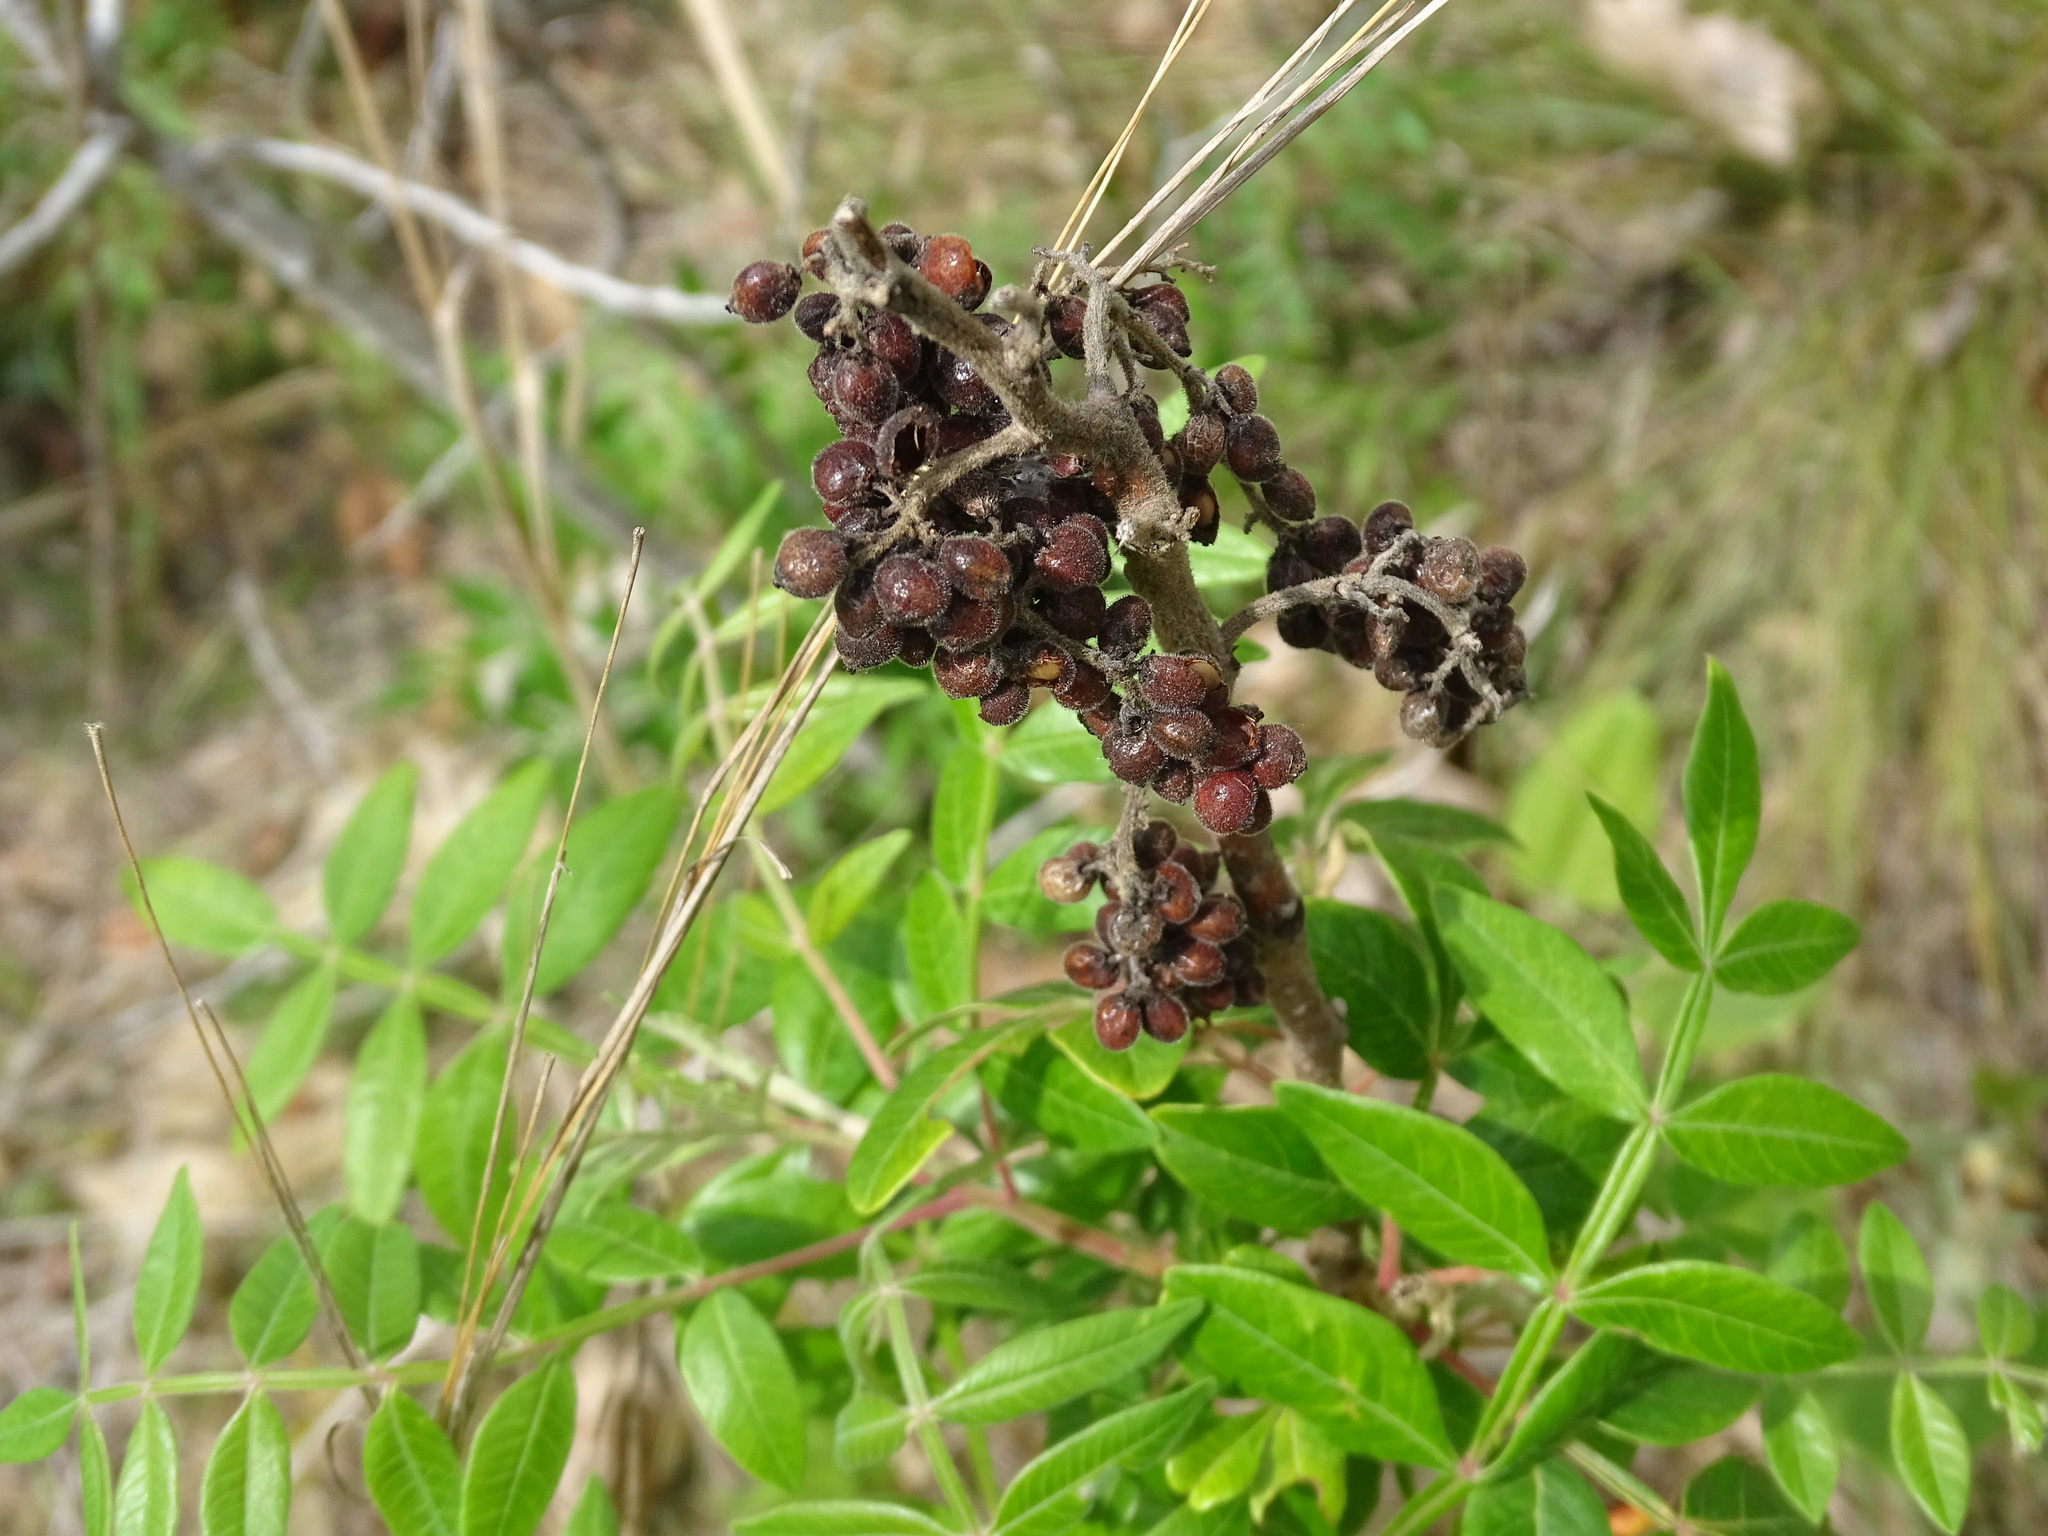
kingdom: Plantae
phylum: Tracheophyta
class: Magnoliopsida
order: Sapindales
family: Anacardiaceae
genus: Rhus
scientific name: Rhus copallina
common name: Shining sumac
